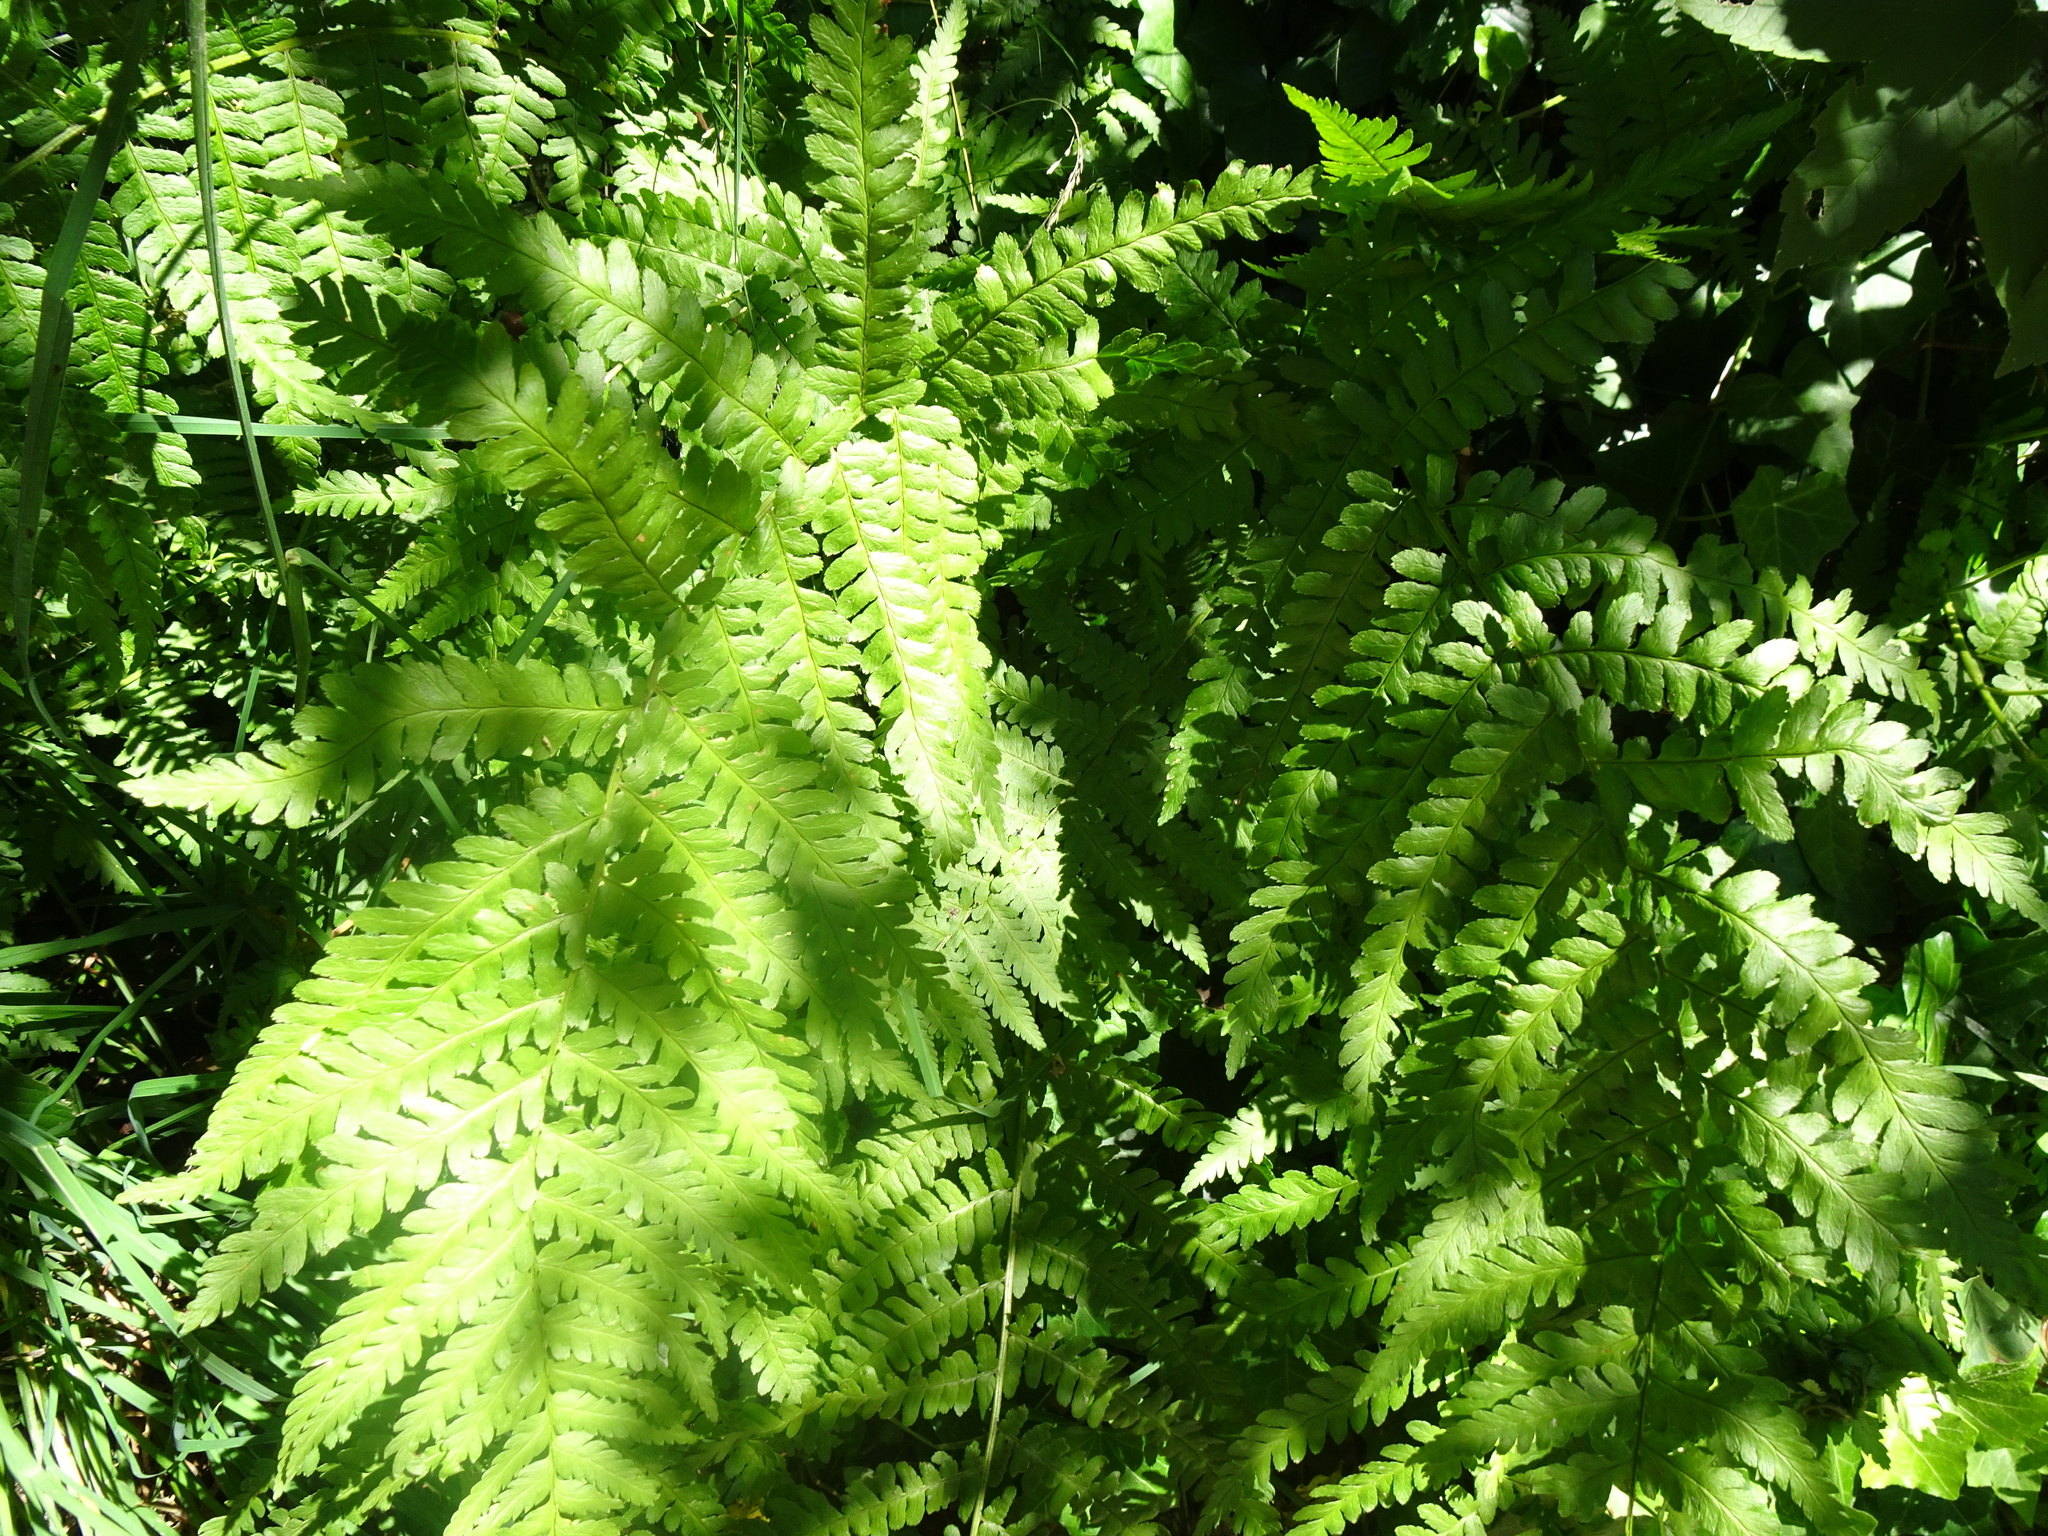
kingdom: Plantae
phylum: Tracheophyta
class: Polypodiopsida
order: Polypodiales
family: Dryopteridaceae
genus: Dryopteris
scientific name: Dryopteris filix-mas
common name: Male fern
